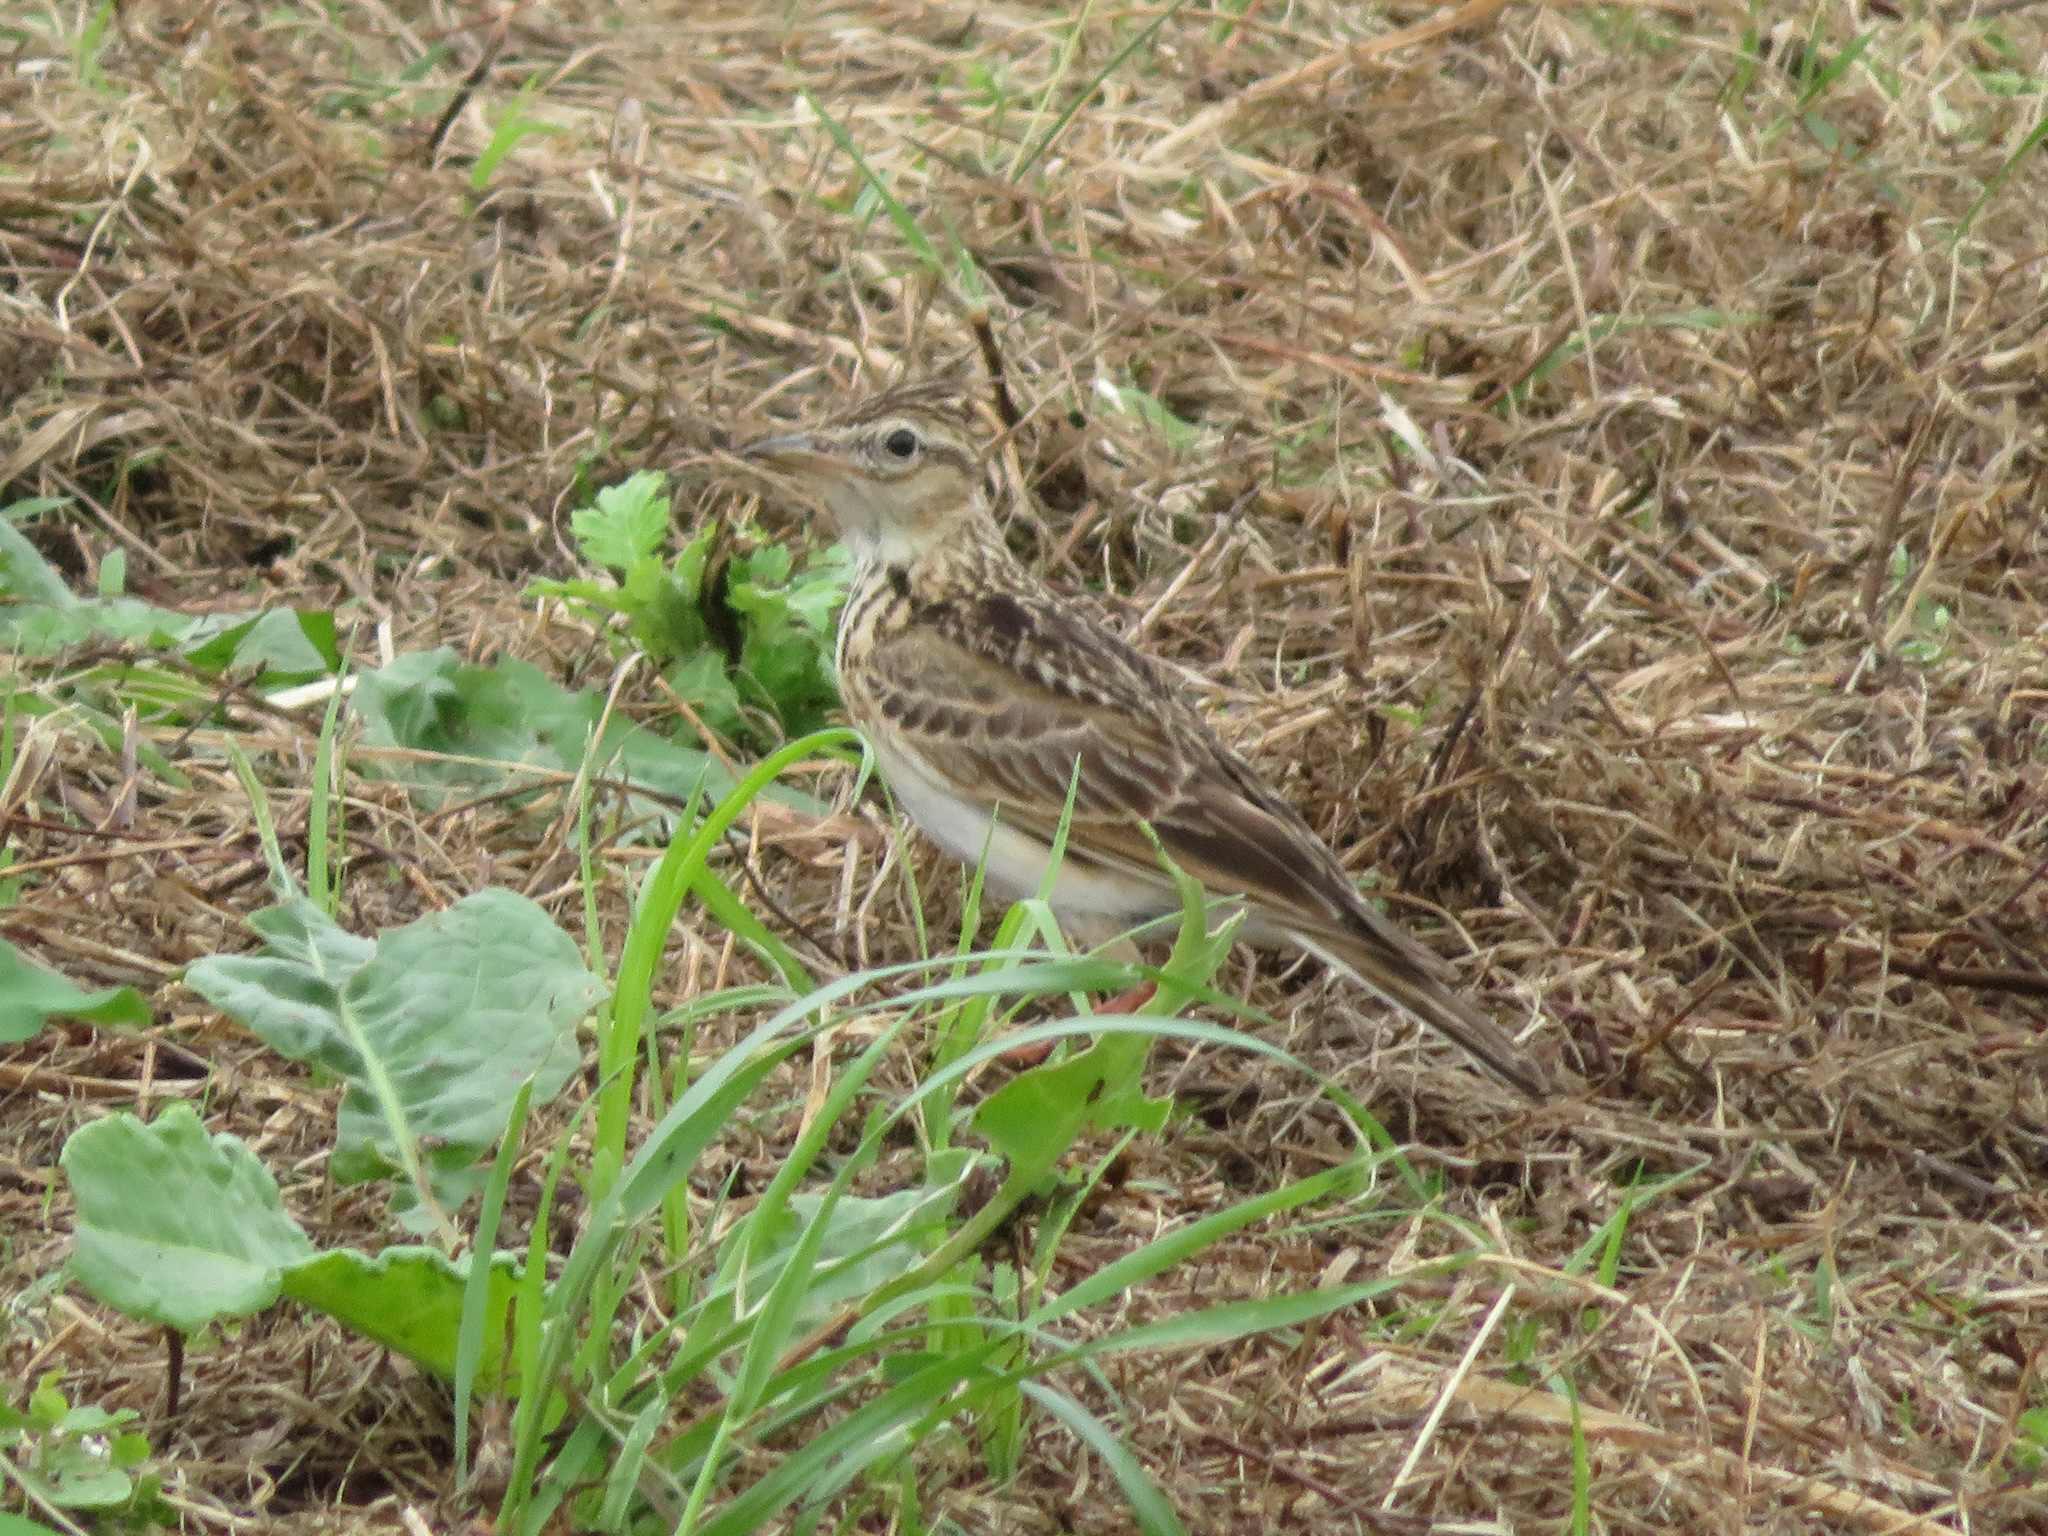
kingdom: Animalia
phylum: Chordata
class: Aves
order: Passeriformes
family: Alaudidae
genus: Alauda
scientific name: Alauda arvensis
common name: Eurasian skylark
